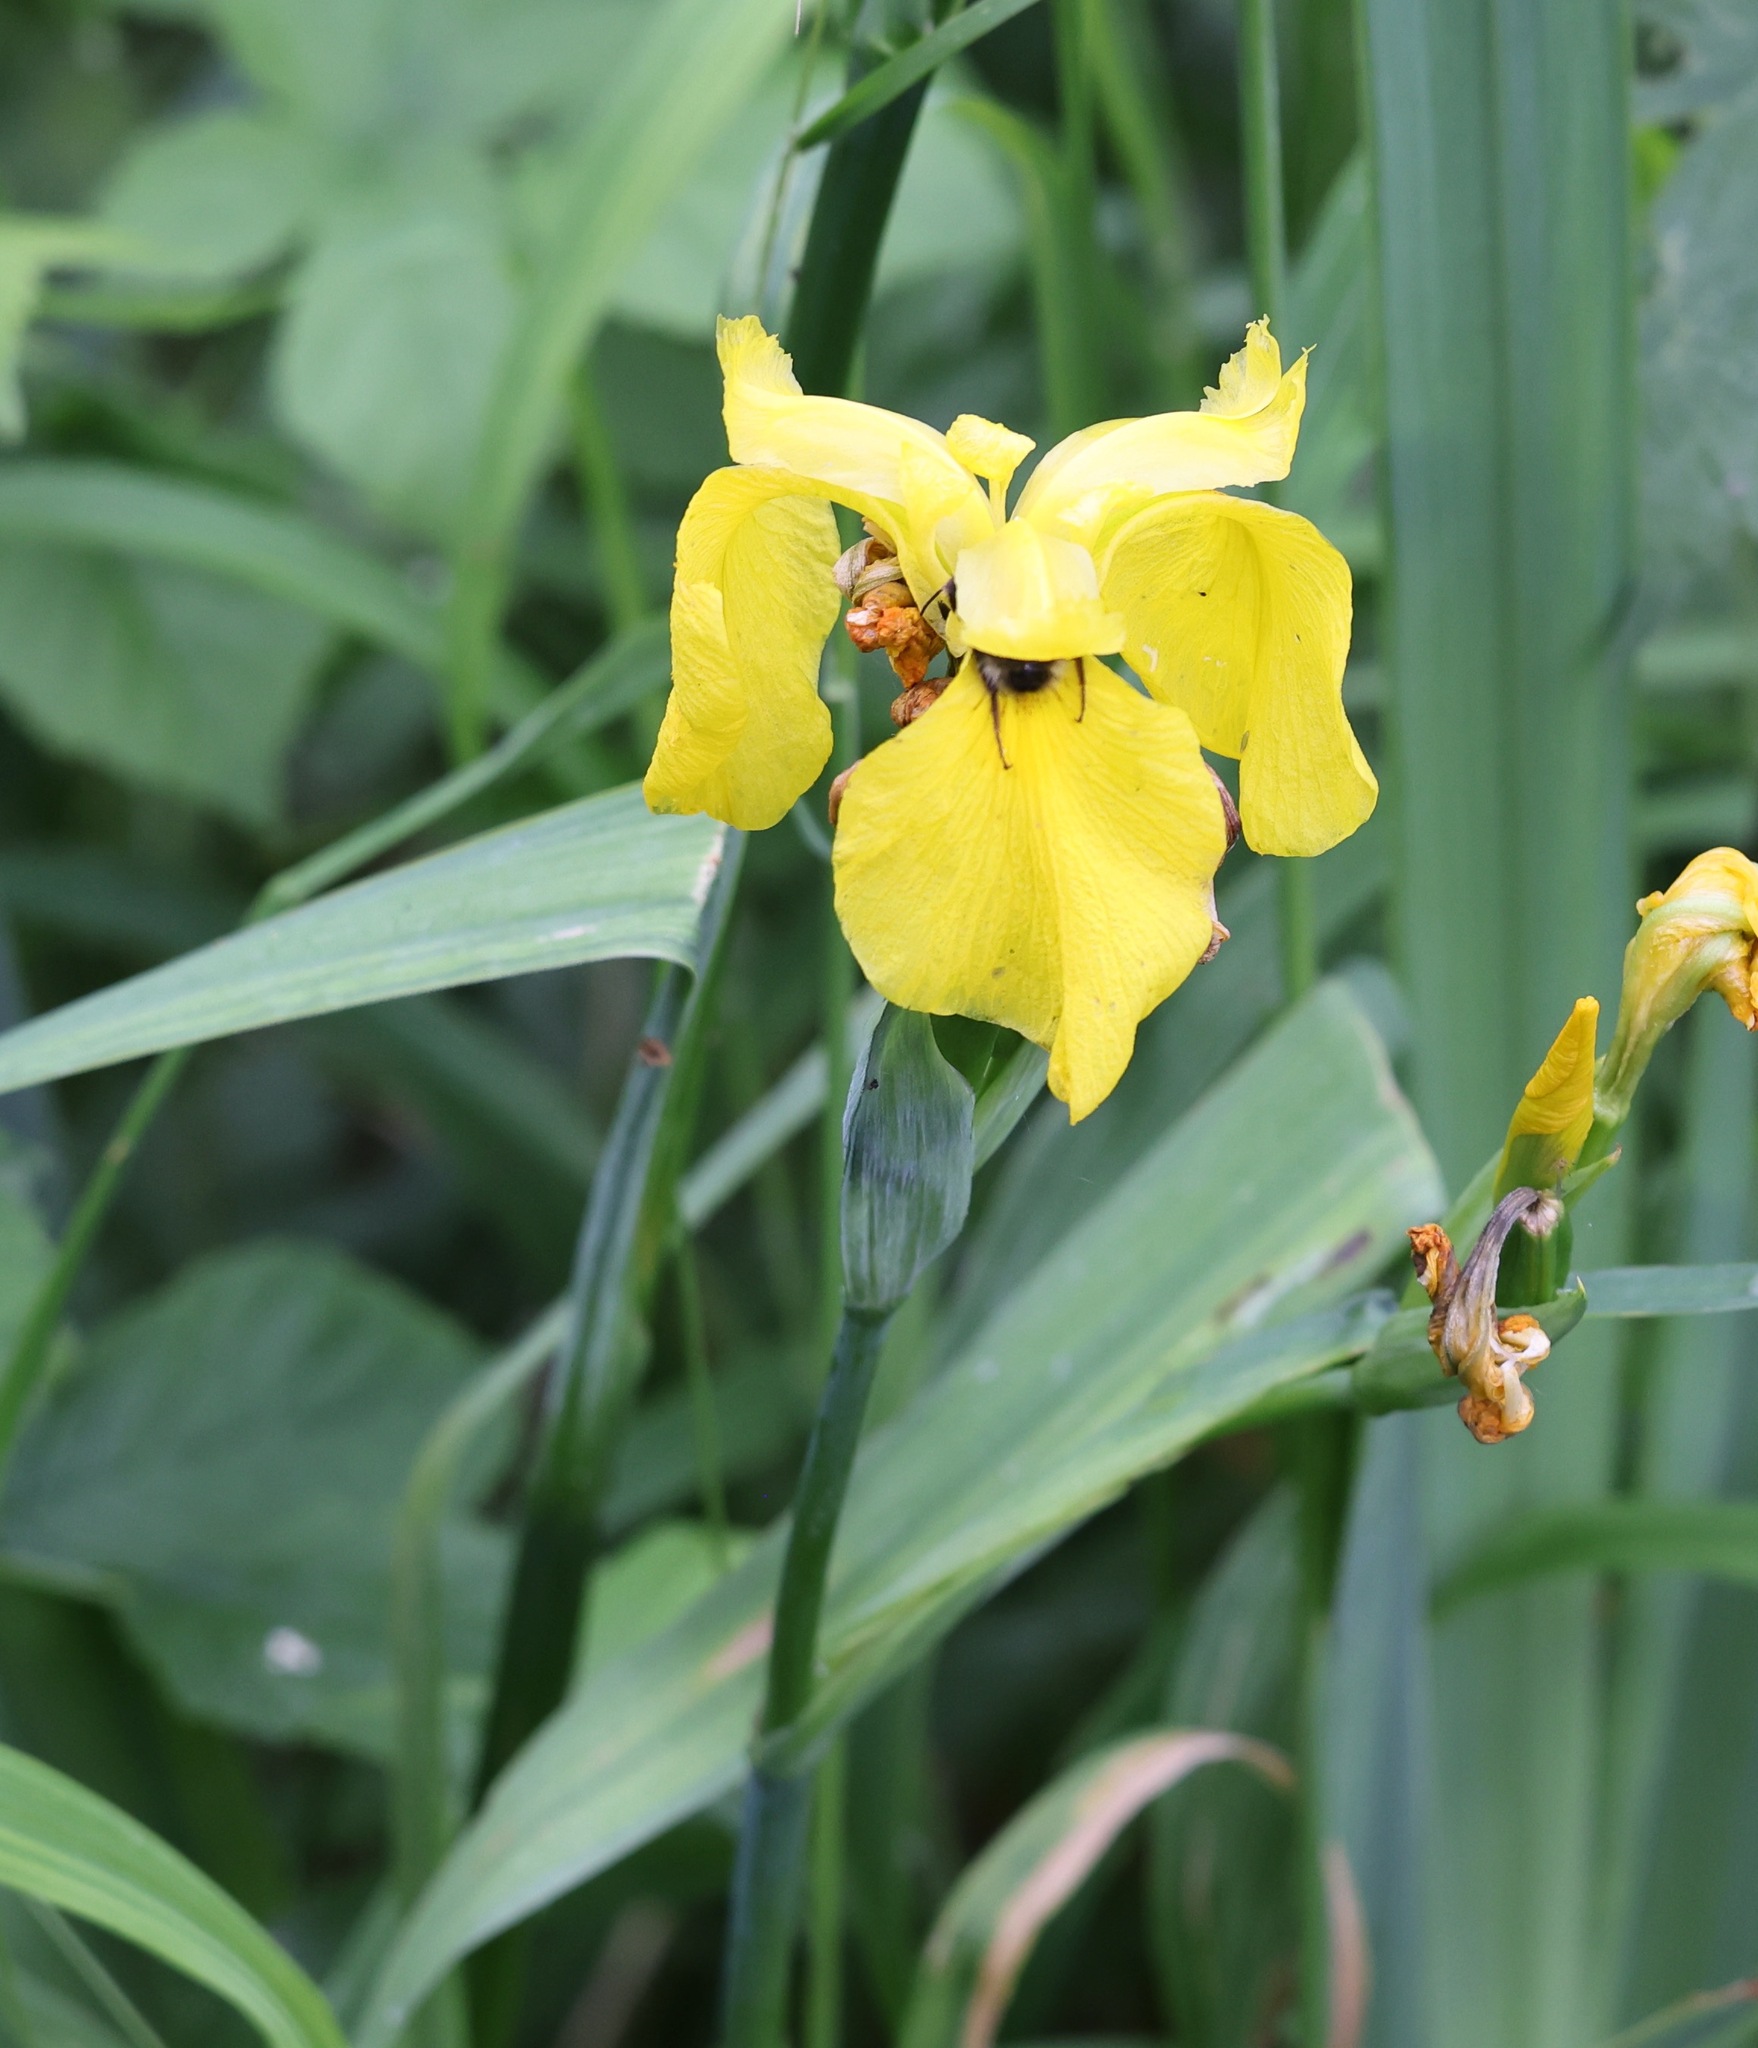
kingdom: Plantae
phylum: Tracheophyta
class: Liliopsida
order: Asparagales
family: Iridaceae
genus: Iris
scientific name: Iris pseudacorus
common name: Yellow flag
